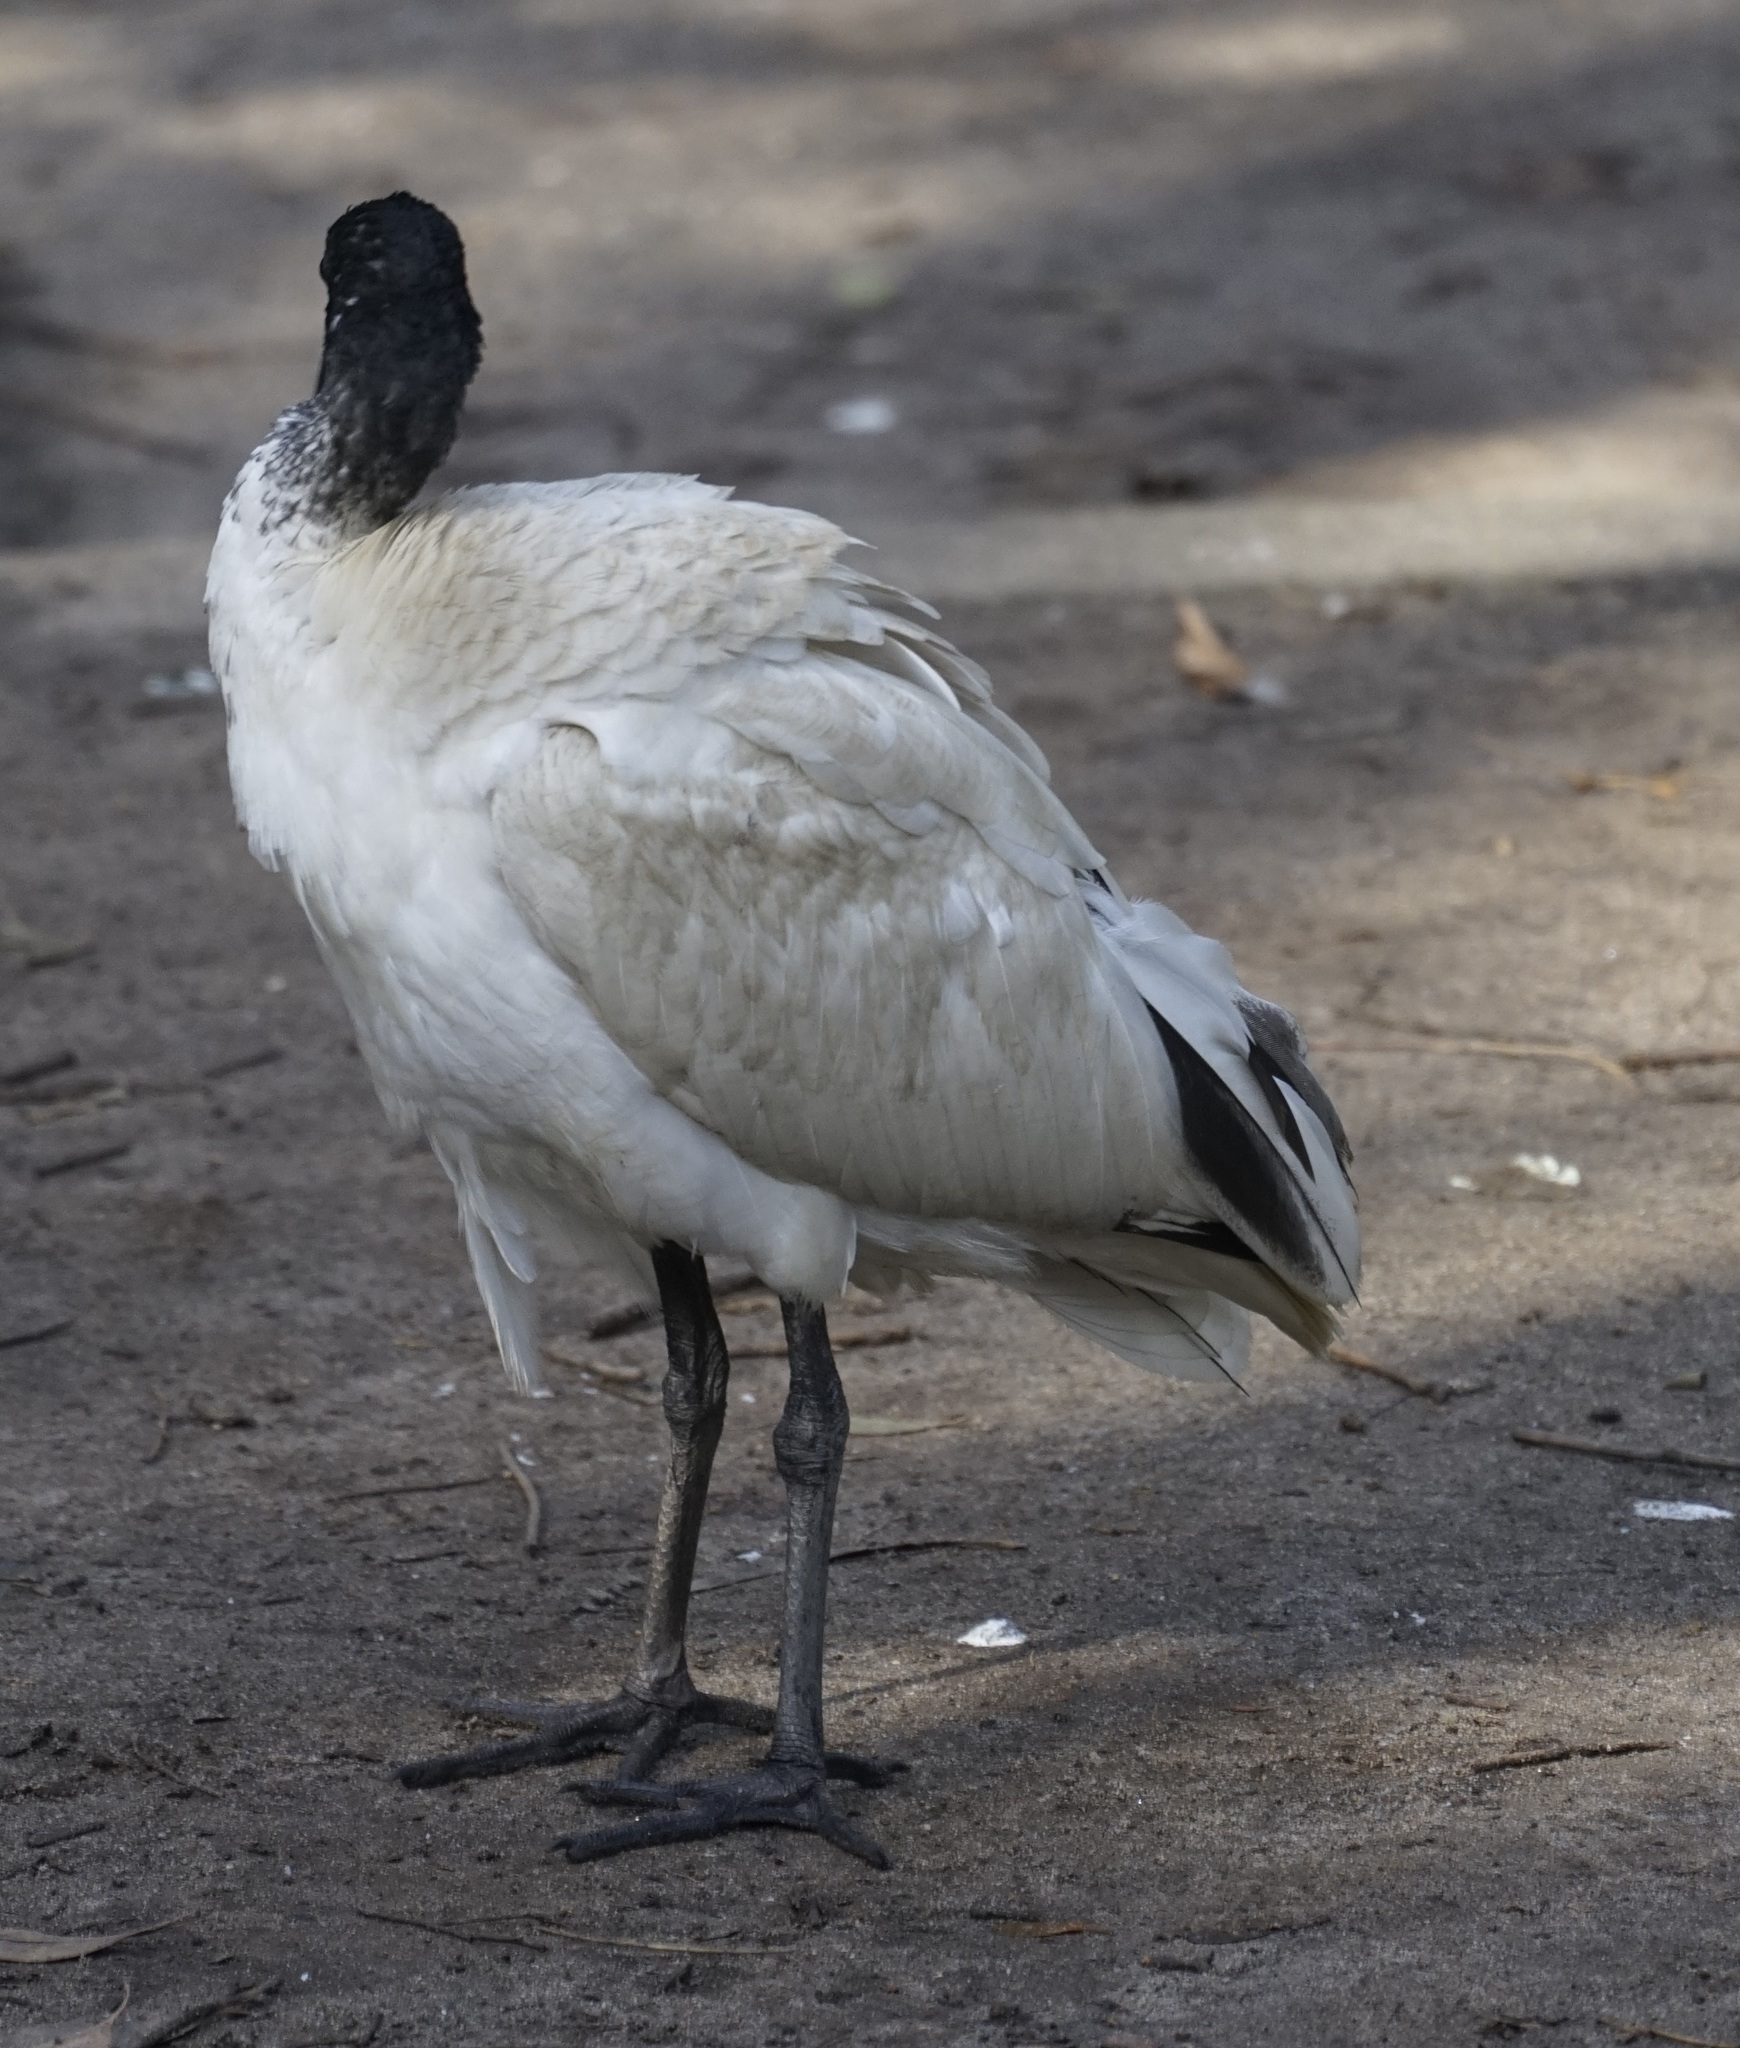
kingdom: Animalia
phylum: Chordata
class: Aves
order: Pelecaniformes
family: Threskiornithidae
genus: Threskiornis
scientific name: Threskiornis molucca
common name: Australian white ibis
